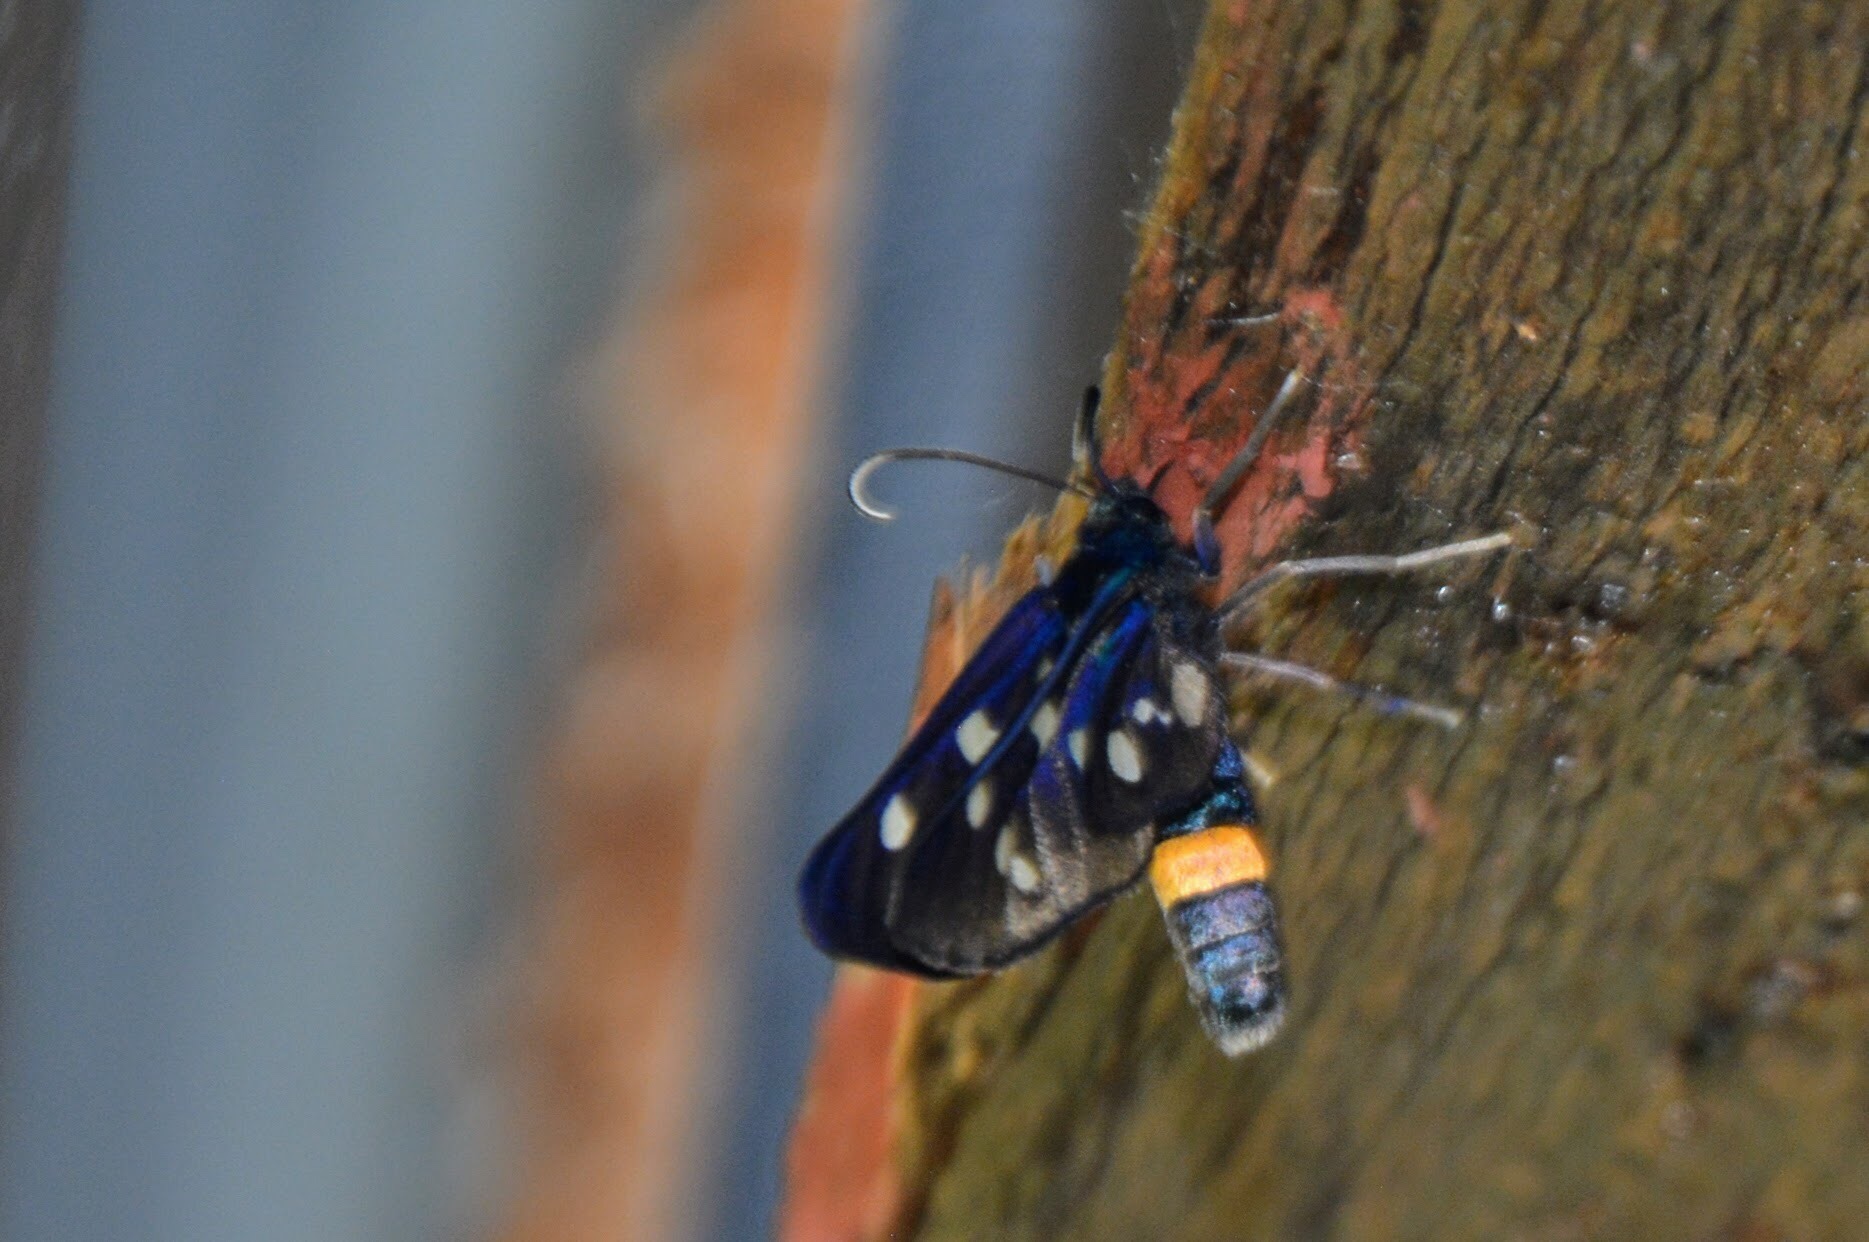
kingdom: Animalia
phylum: Arthropoda
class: Insecta
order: Lepidoptera
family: Erebidae
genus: Amata
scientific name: Amata phegea
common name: Nine-spotted
